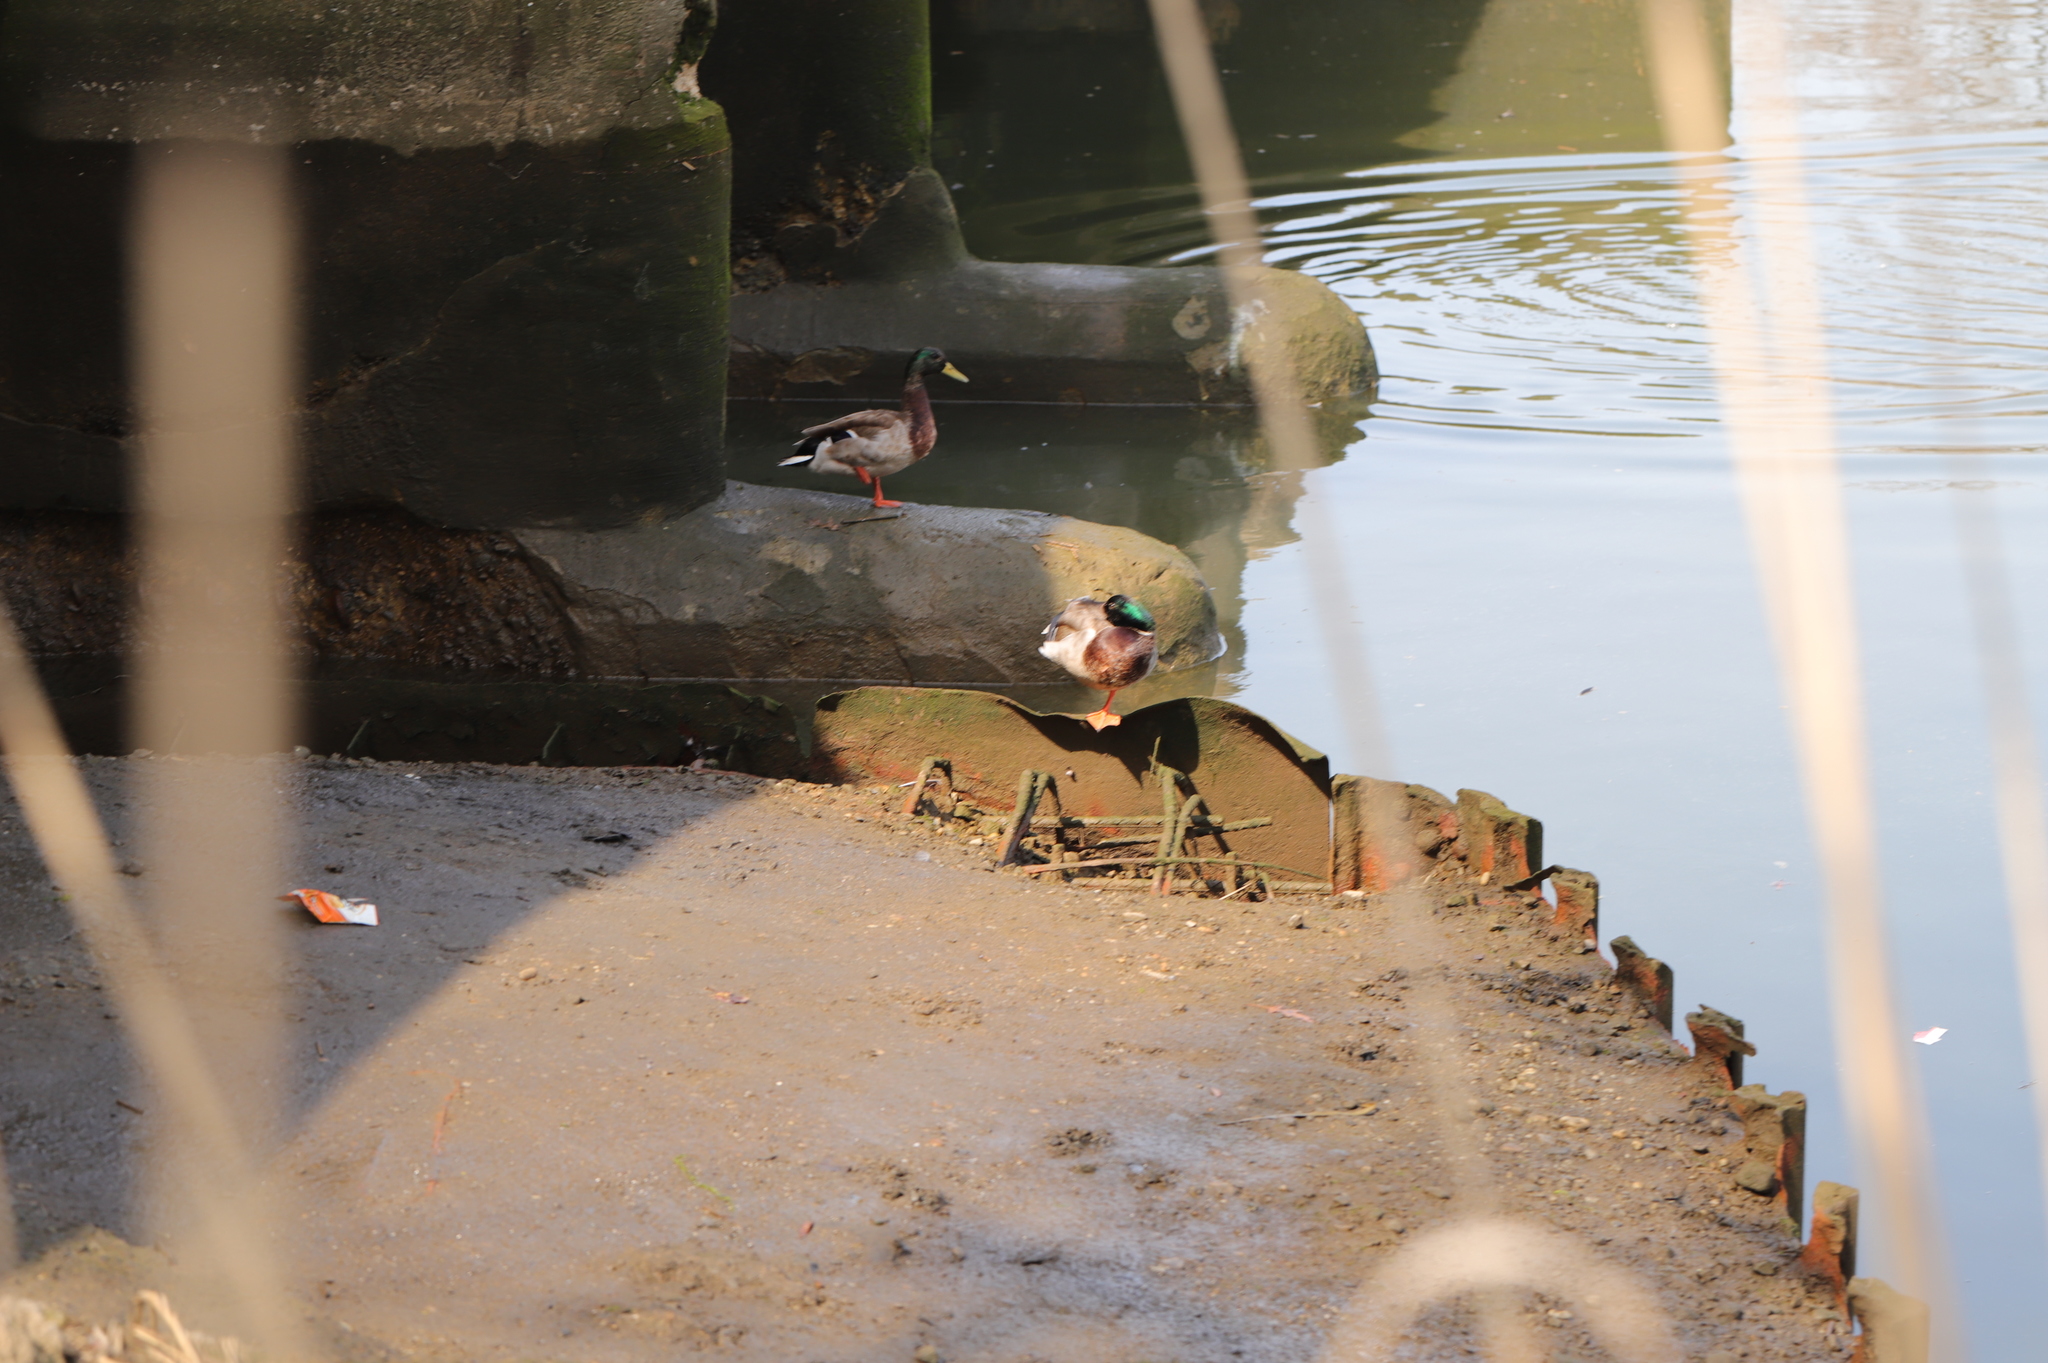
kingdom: Animalia
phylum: Chordata
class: Aves
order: Anseriformes
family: Anatidae
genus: Anas
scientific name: Anas platyrhynchos
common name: Mallard
